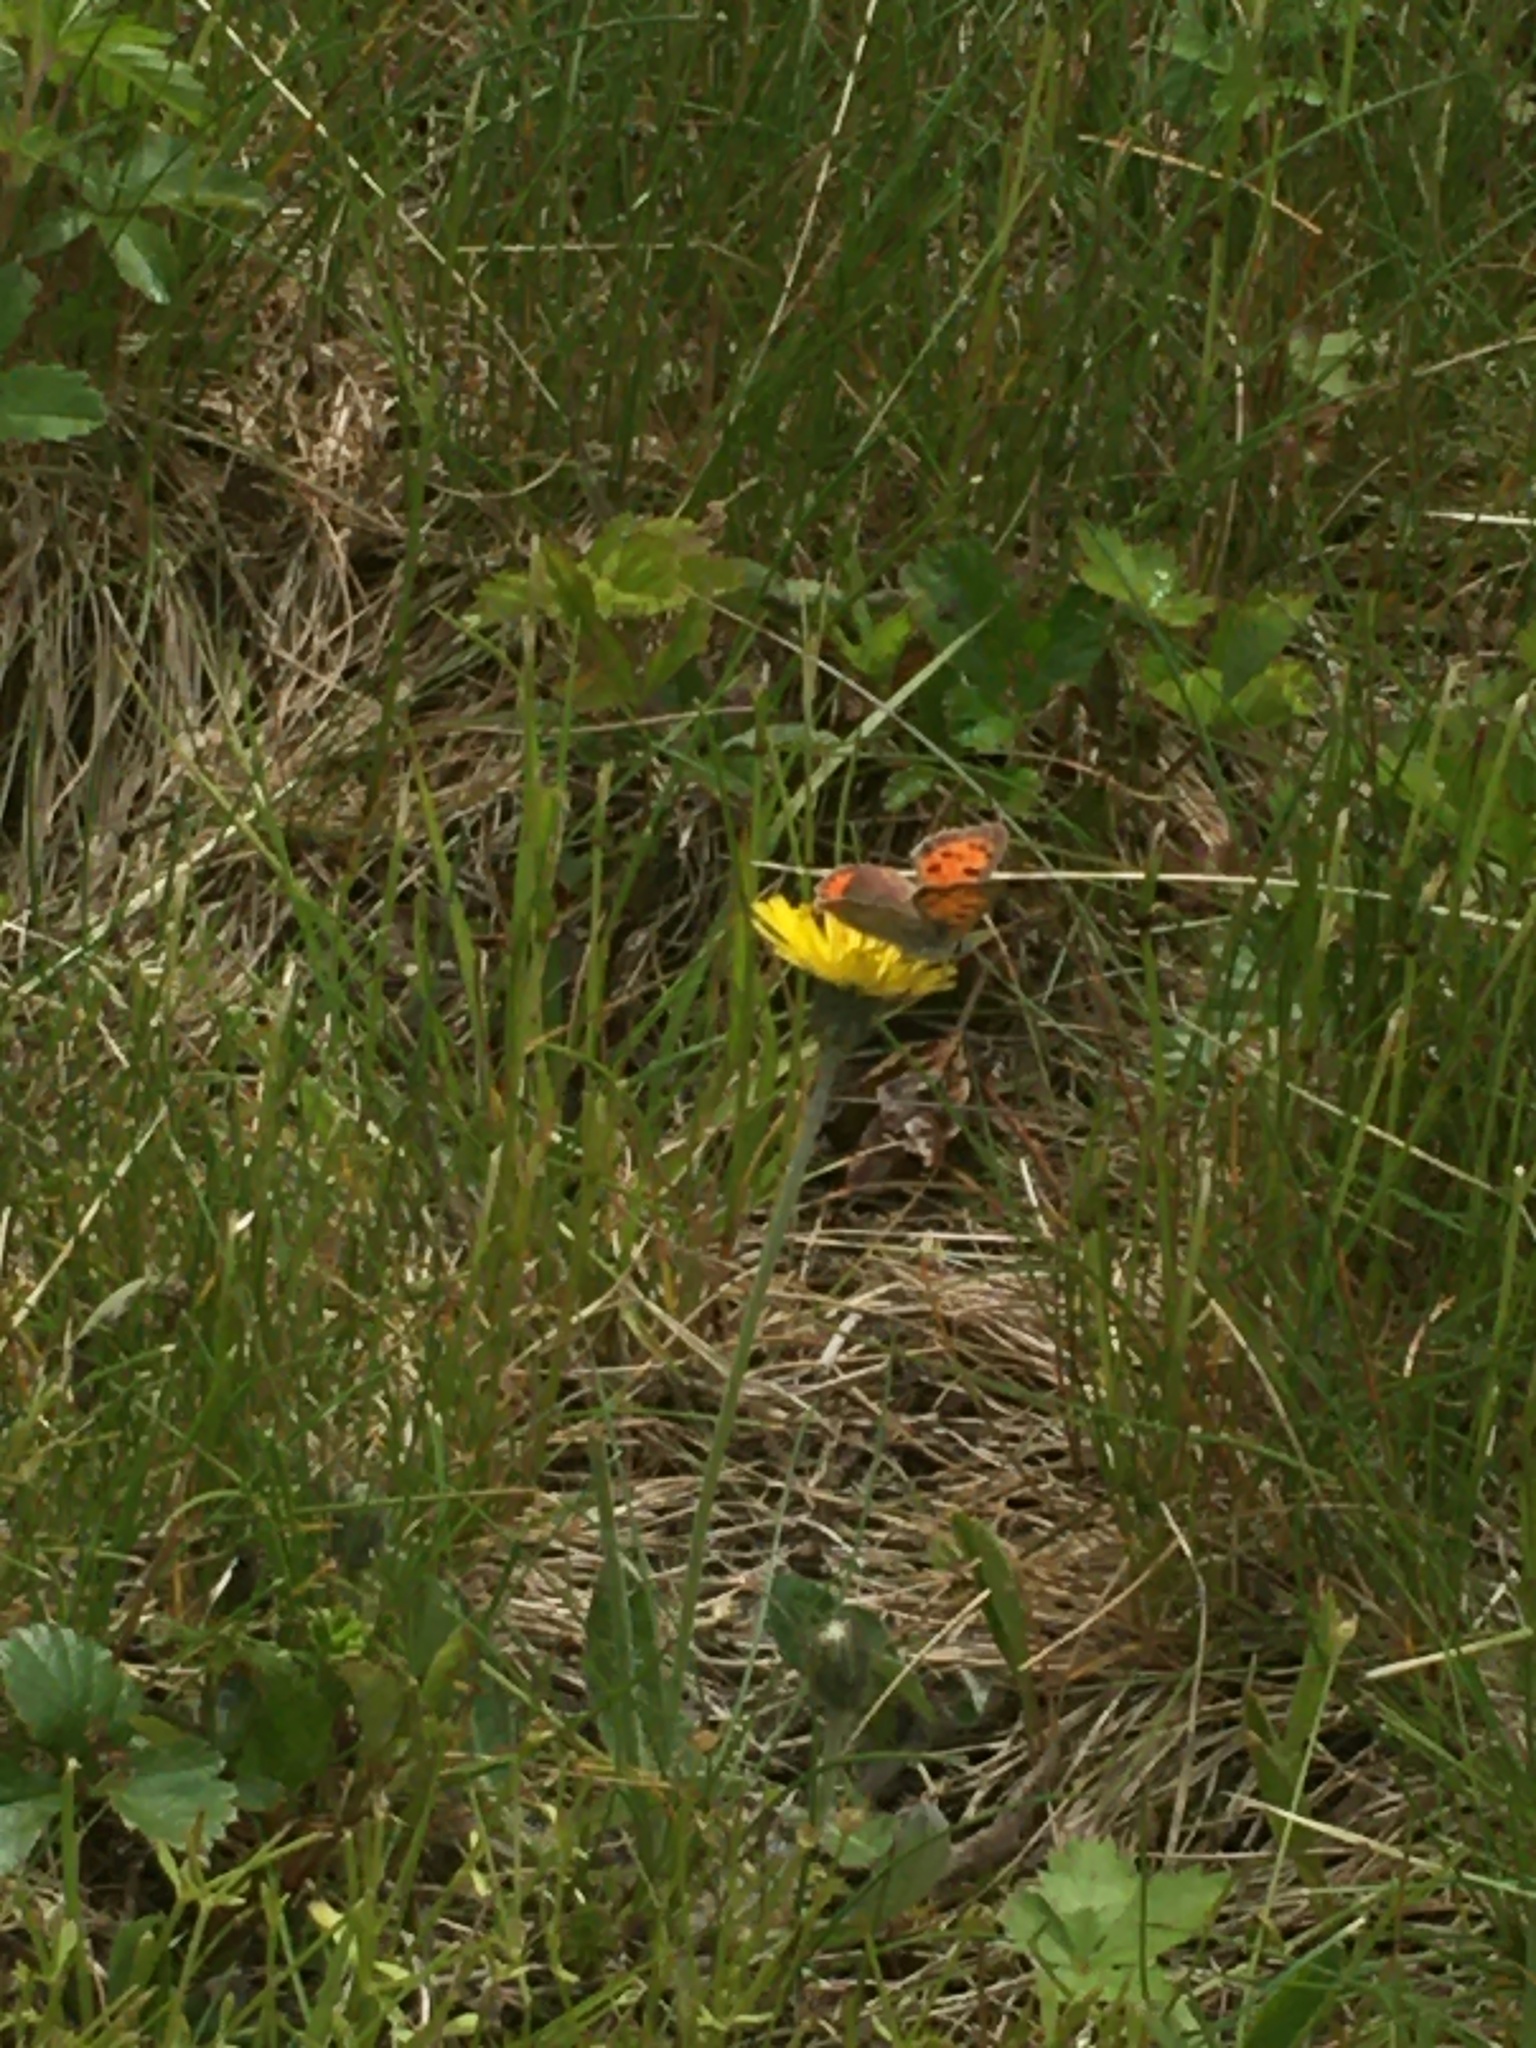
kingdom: Animalia
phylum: Arthropoda
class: Insecta
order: Lepidoptera
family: Lycaenidae
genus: Lycaena
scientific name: Lycaena hypophlaeas
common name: American copper
